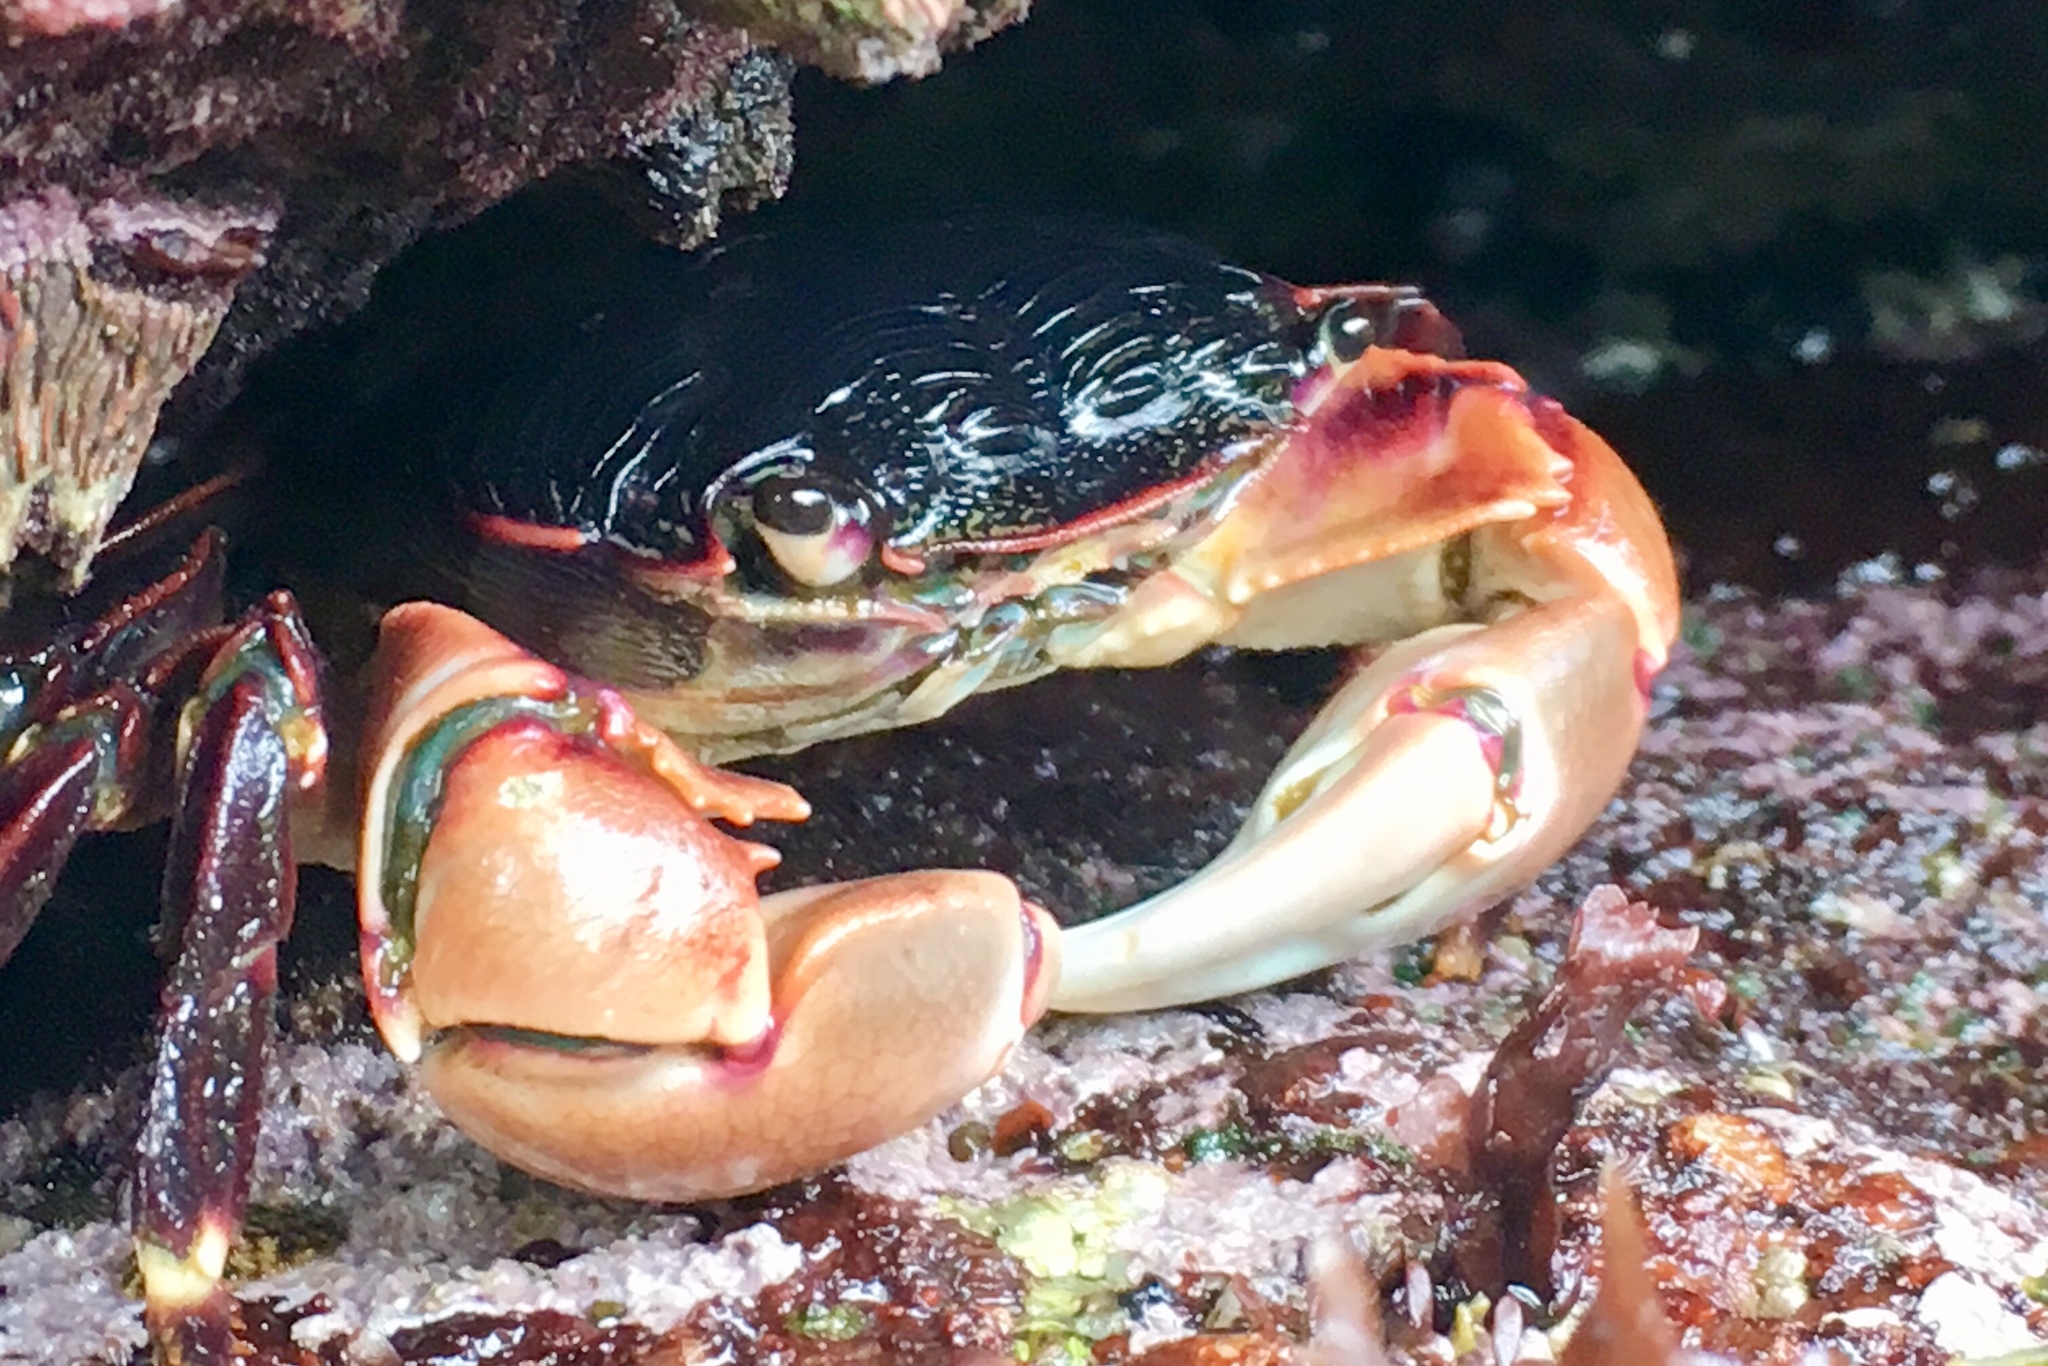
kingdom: Animalia
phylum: Arthropoda
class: Malacostraca
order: Decapoda
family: Grapsidae
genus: Pachygrapsus
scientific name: Pachygrapsus crassipes
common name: Striped shore crab
